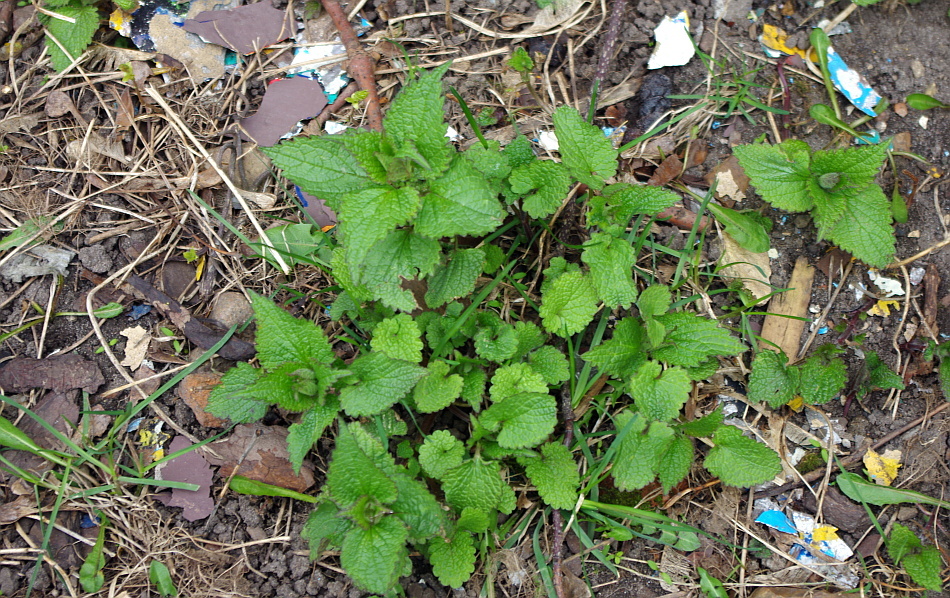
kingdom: Plantae
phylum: Tracheophyta
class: Magnoliopsida
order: Lamiales
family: Lamiaceae
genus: Lamium
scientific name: Lamium album
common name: White dead-nettle
